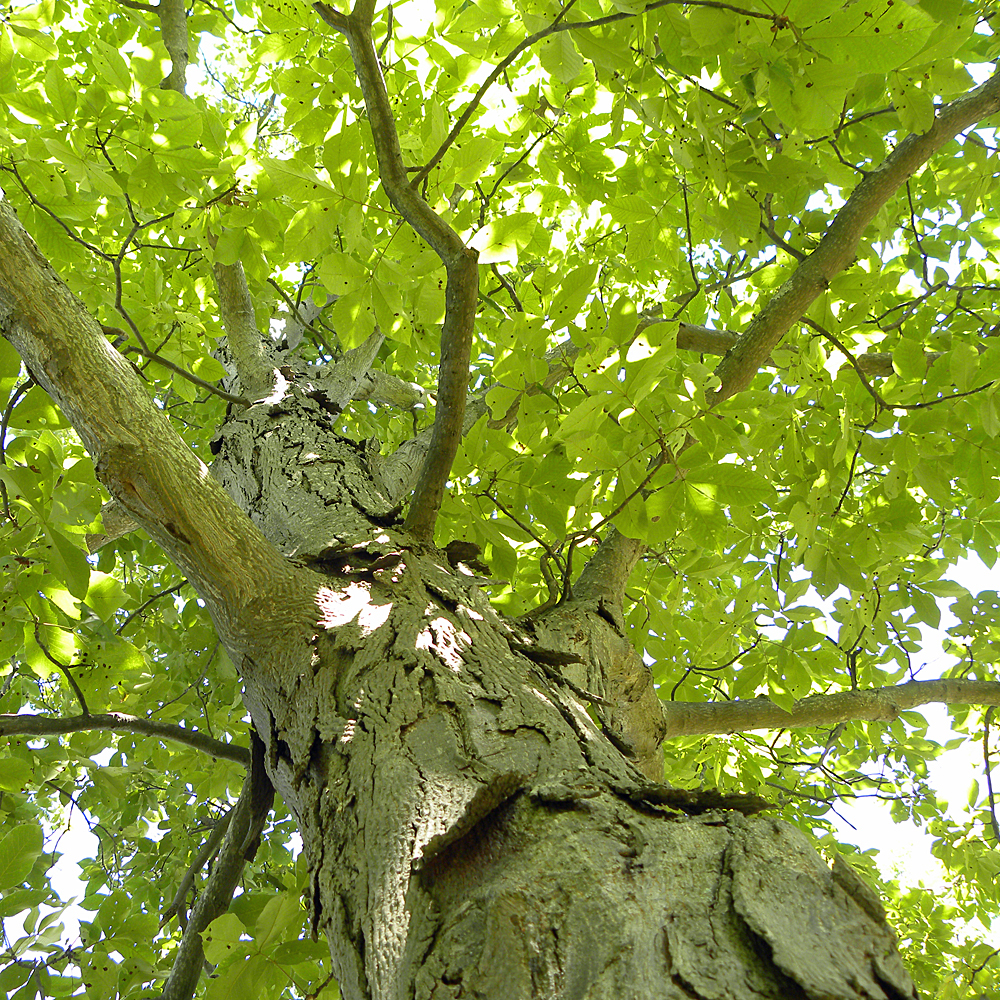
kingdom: Plantae
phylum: Tracheophyta
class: Magnoliopsida
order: Fagales
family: Juglandaceae
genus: Carya
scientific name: Carya ovata
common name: Shagbark hickory
